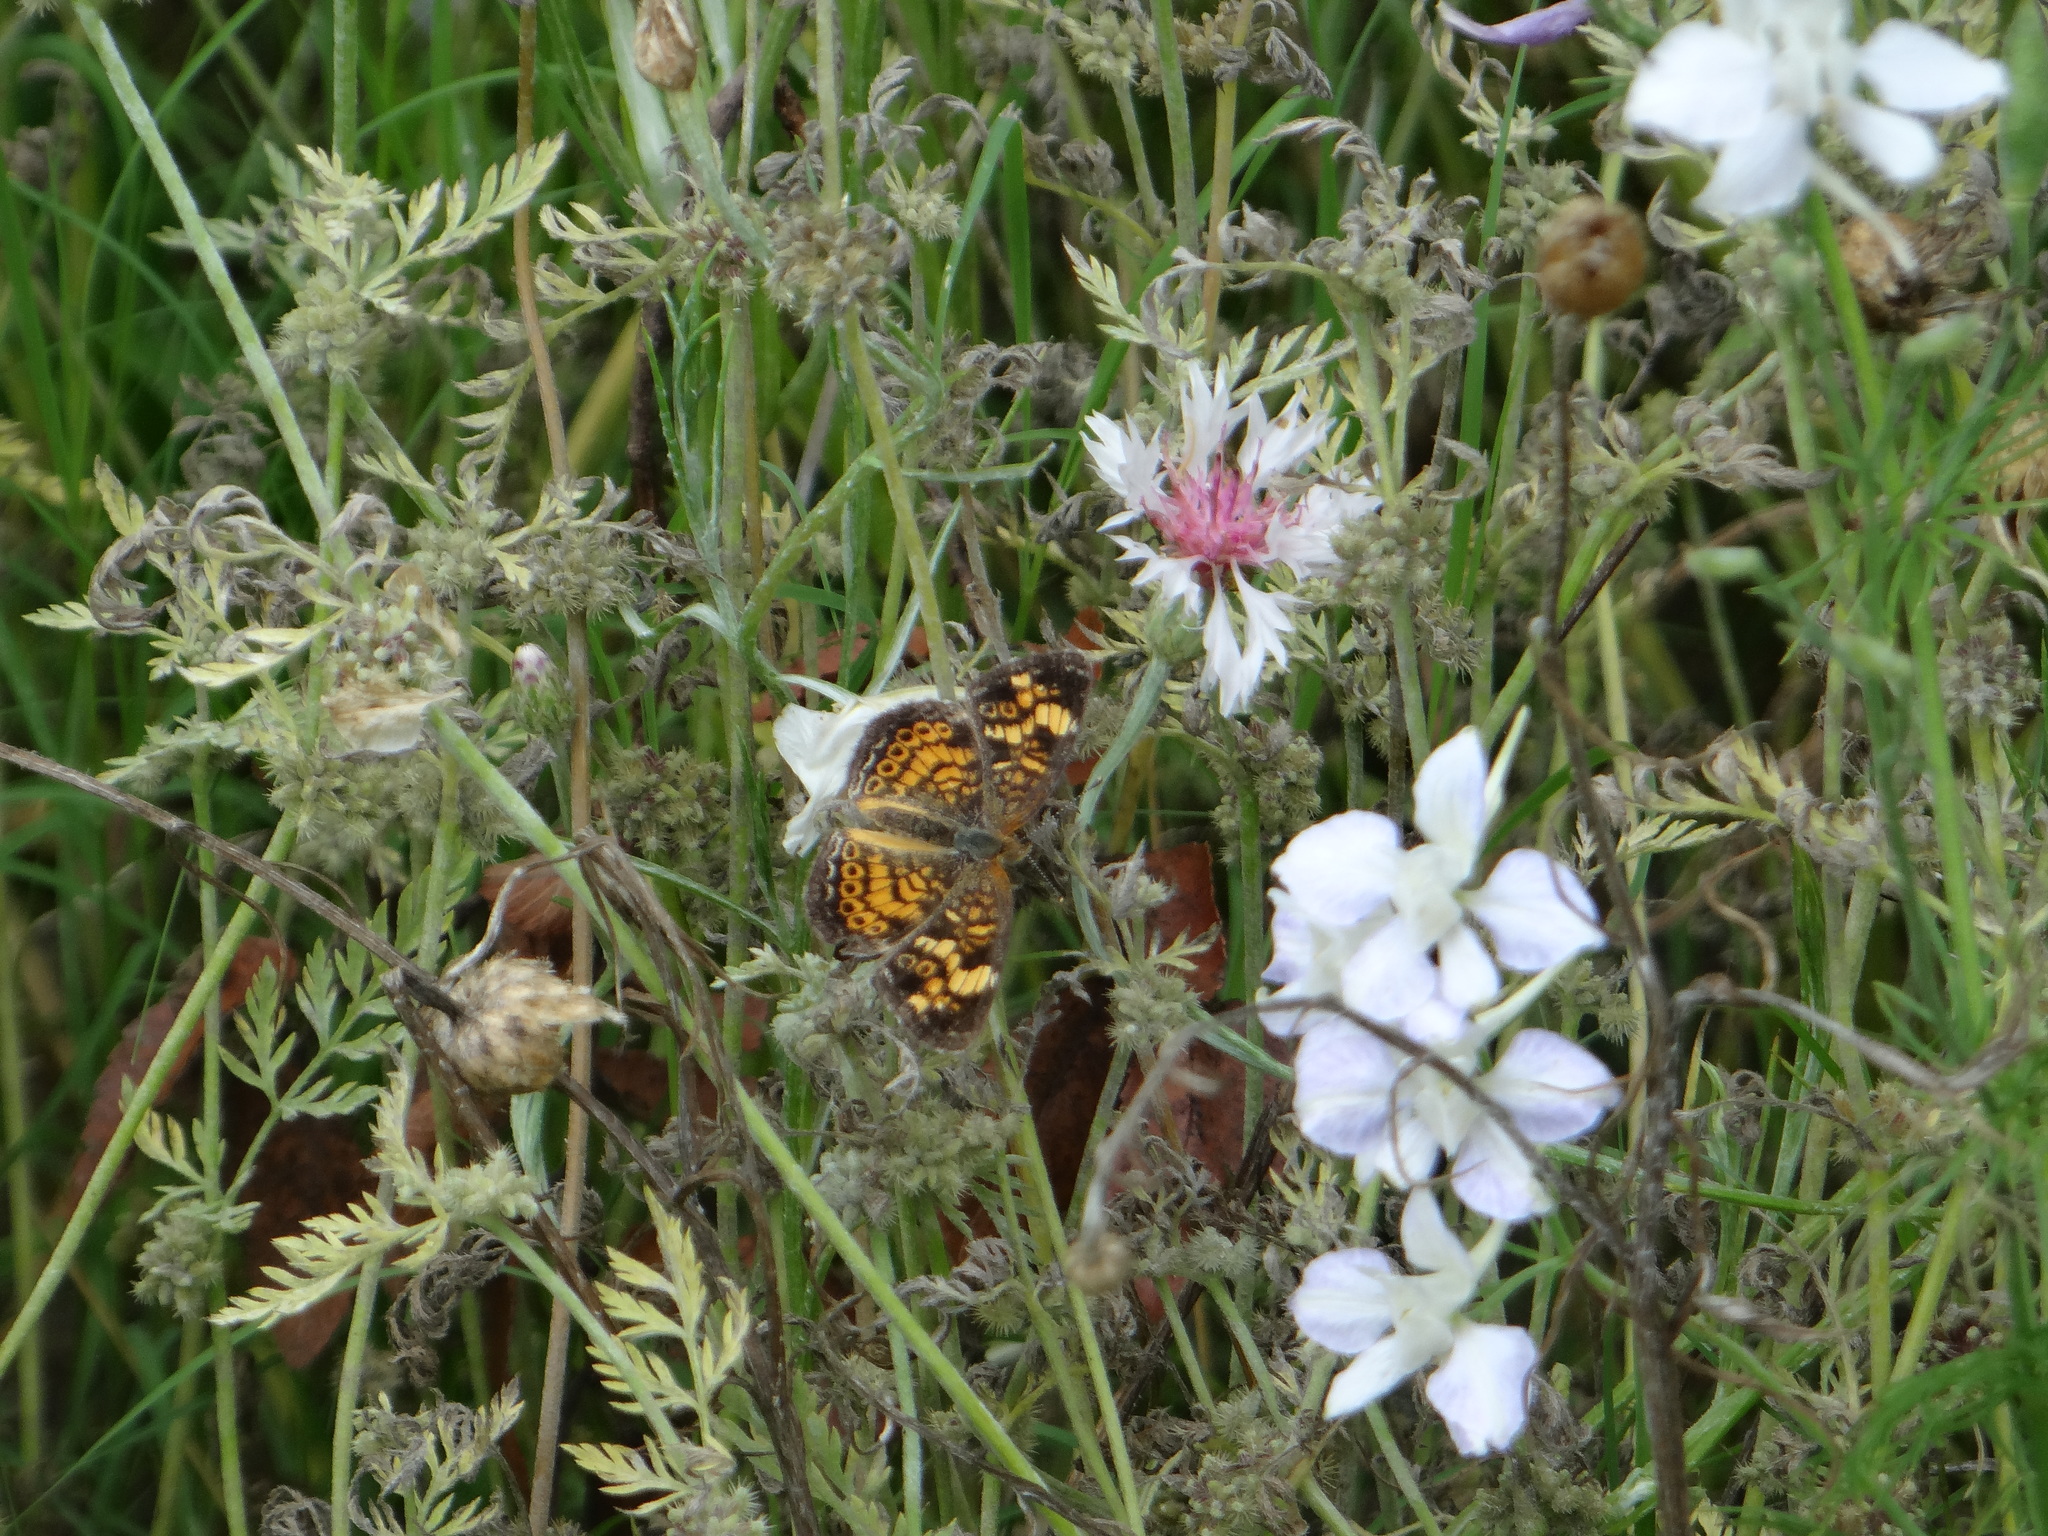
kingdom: Animalia
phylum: Arthropoda
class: Insecta
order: Lepidoptera
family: Nymphalidae
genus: Phyciodes
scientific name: Phyciodes tharos
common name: Pearl crescent
